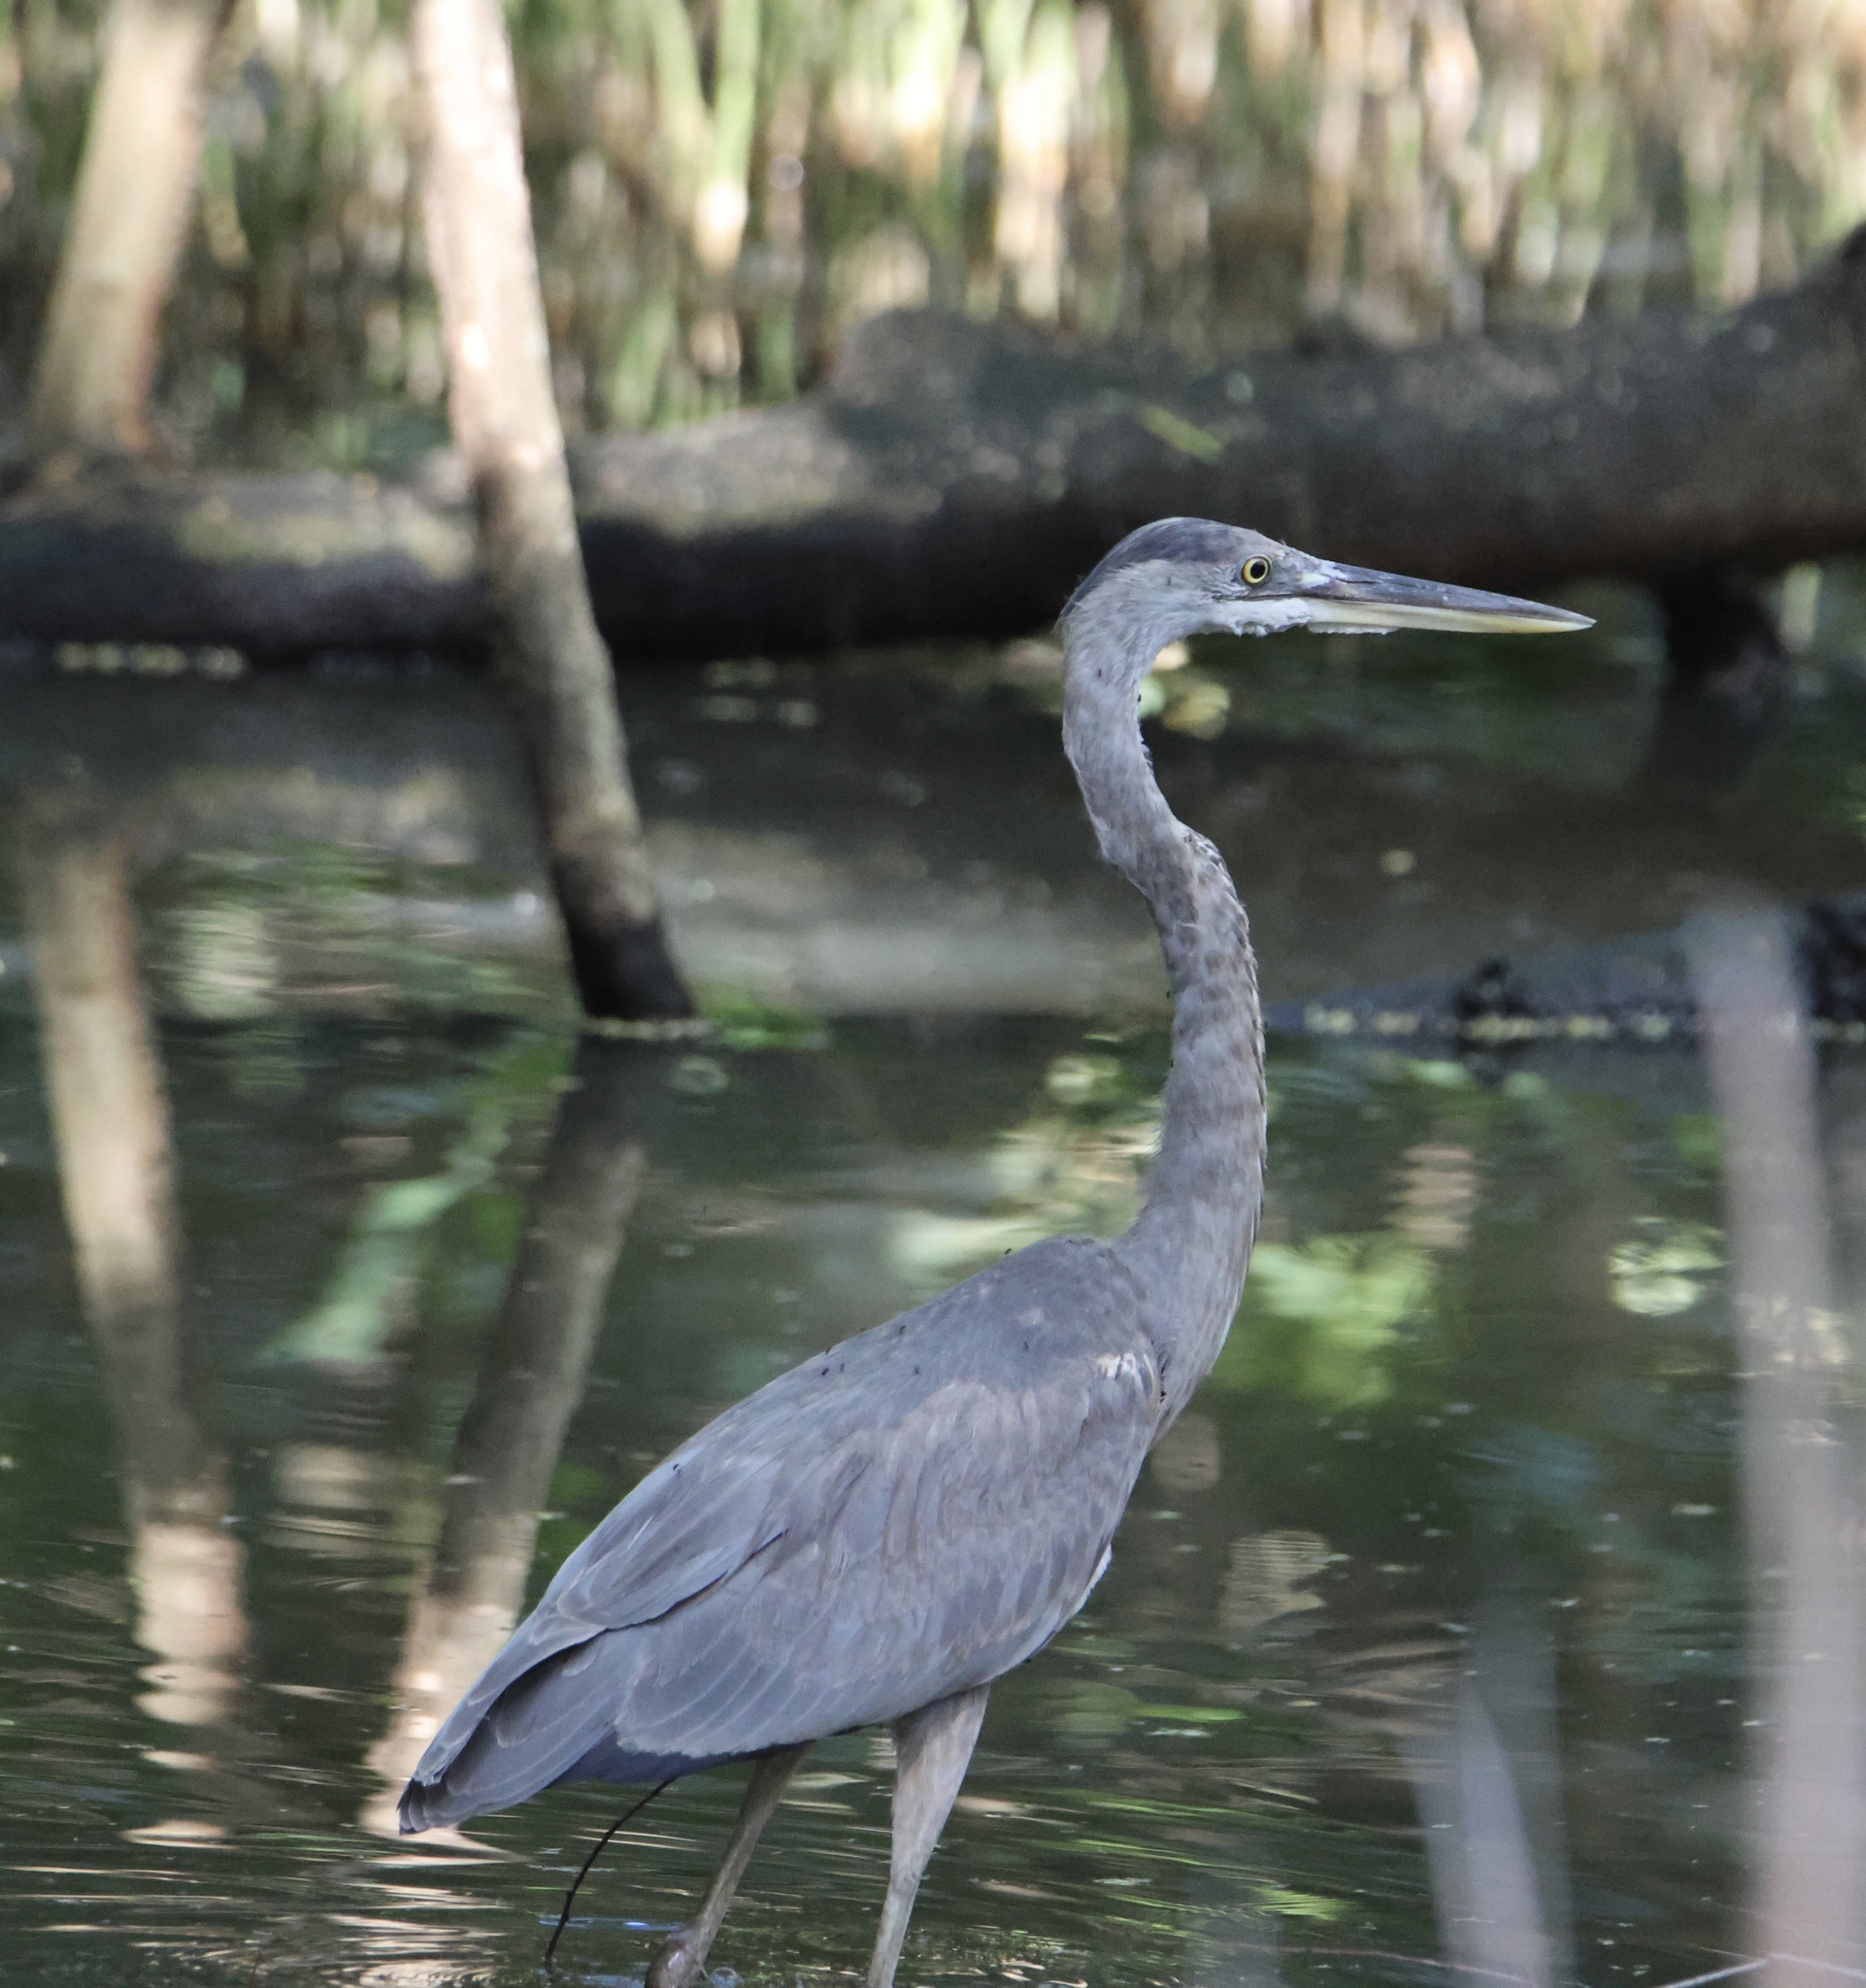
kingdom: Animalia
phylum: Chordata
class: Aves
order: Pelecaniformes
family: Ardeidae
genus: Ardea
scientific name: Ardea herodias
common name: Great blue heron
